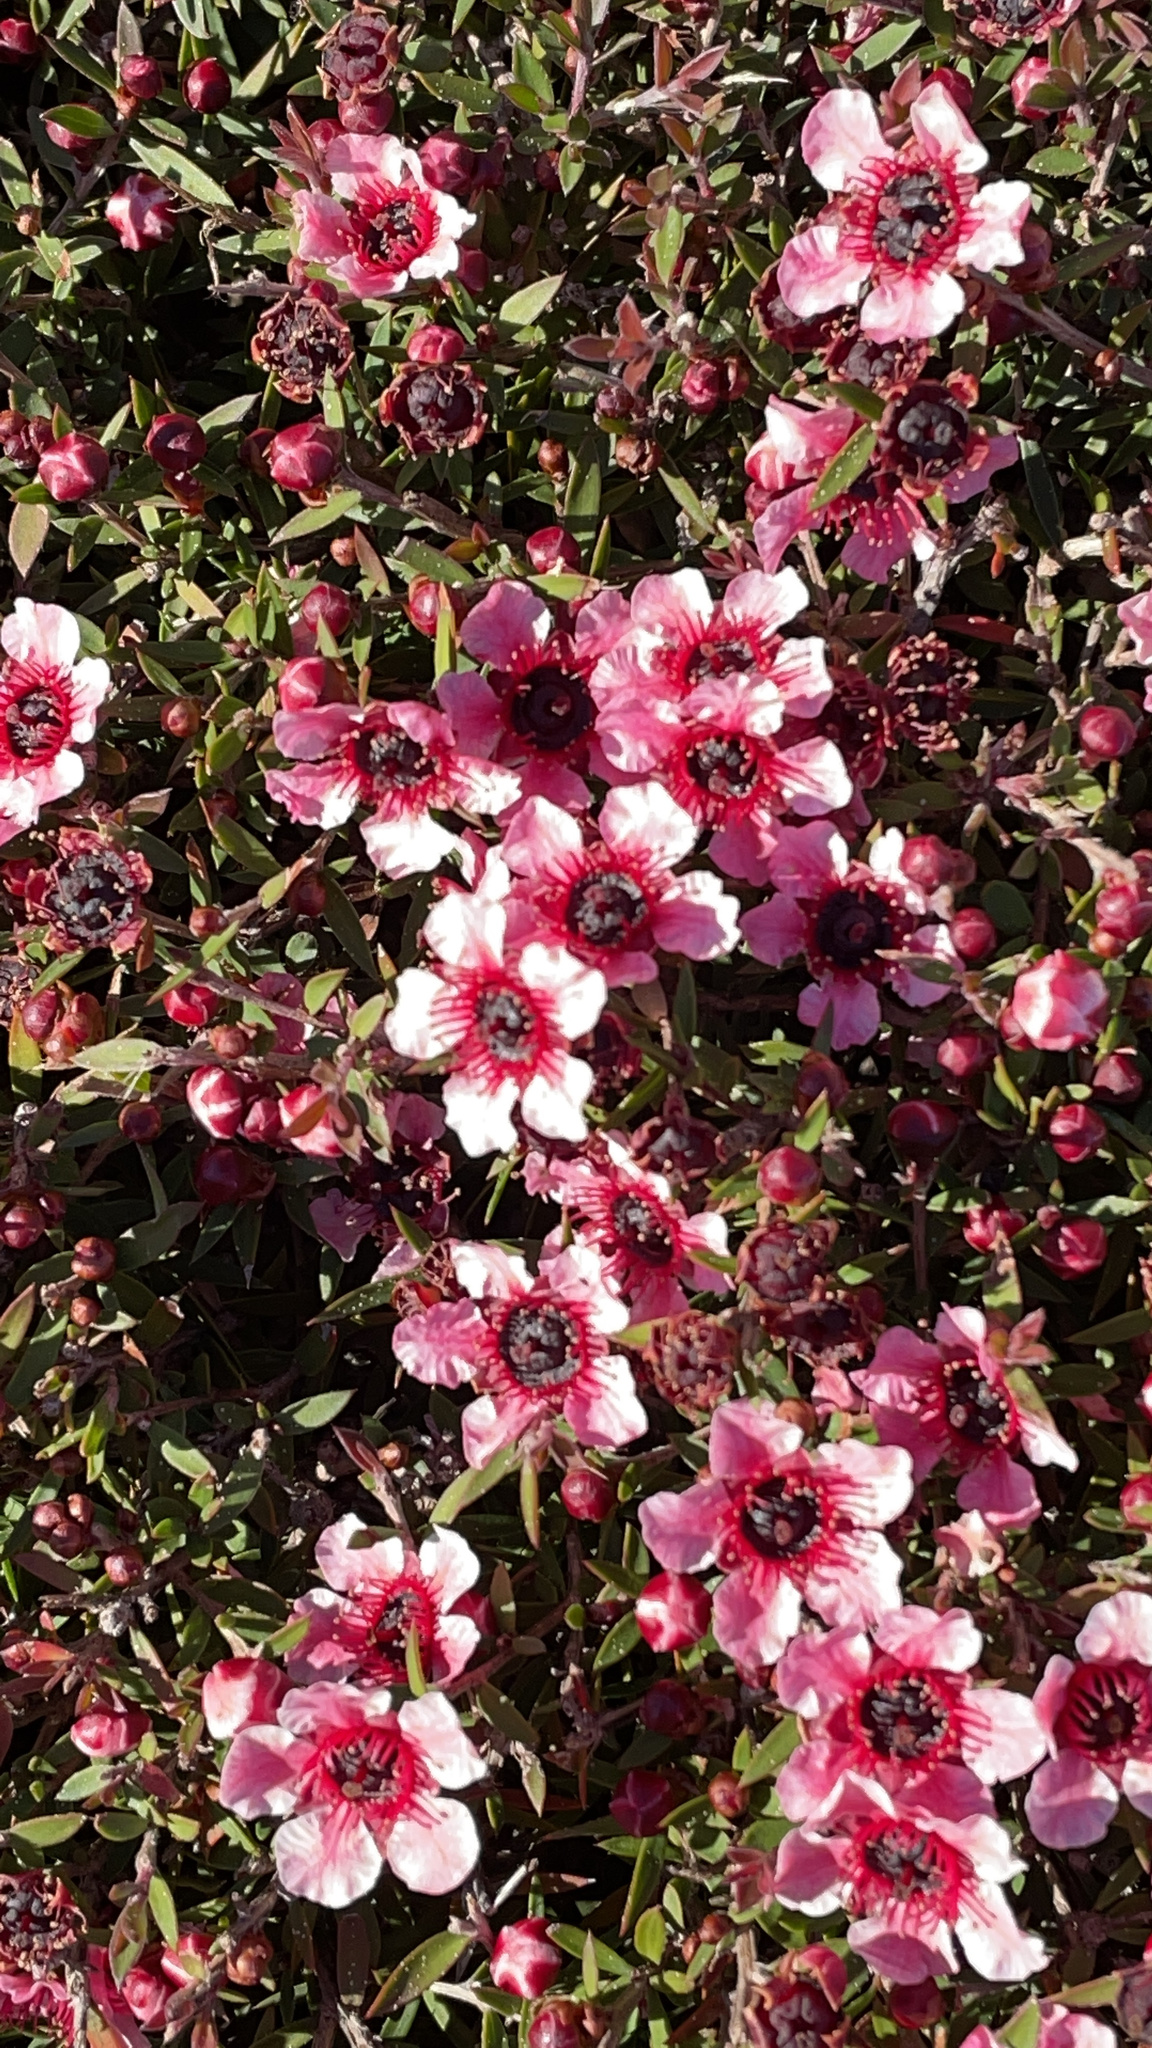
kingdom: Plantae
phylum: Tracheophyta
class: Magnoliopsida
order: Myrtales
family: Myrtaceae
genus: Leptospermum
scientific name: Leptospermum scoparium
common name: Broom tea-tree
